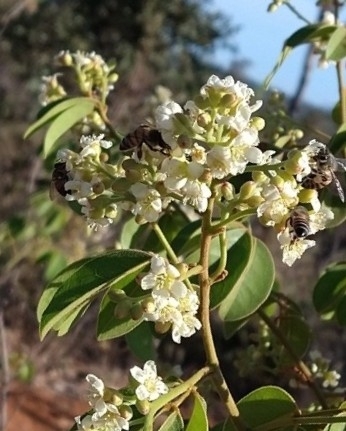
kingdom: Animalia
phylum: Arthropoda
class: Insecta
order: Hymenoptera
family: Apidae
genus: Apis
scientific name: Apis mellifera
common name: Honey bee
